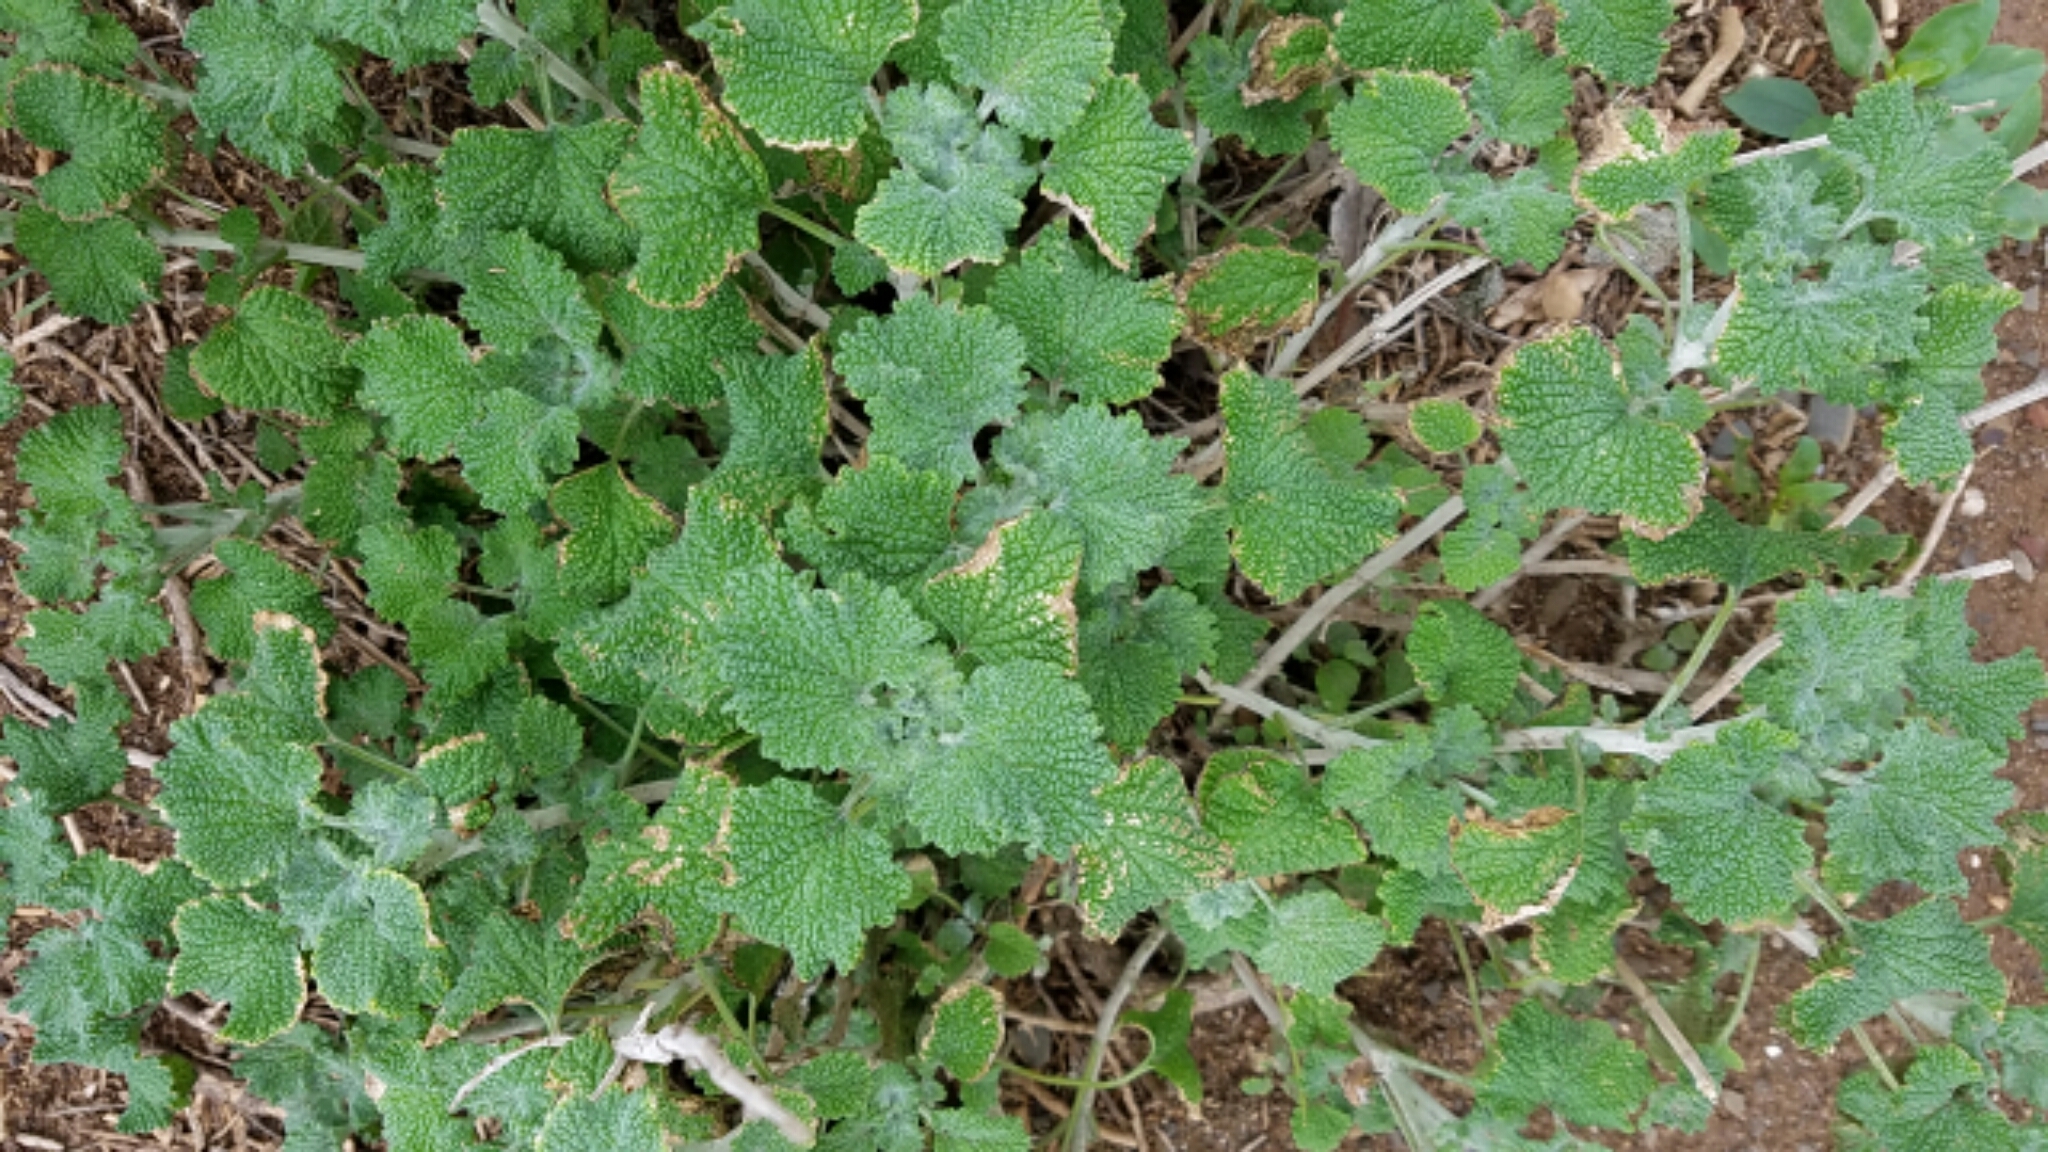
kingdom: Plantae
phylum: Tracheophyta
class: Magnoliopsida
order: Lamiales
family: Lamiaceae
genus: Marrubium
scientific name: Marrubium vulgare
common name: Horehound
